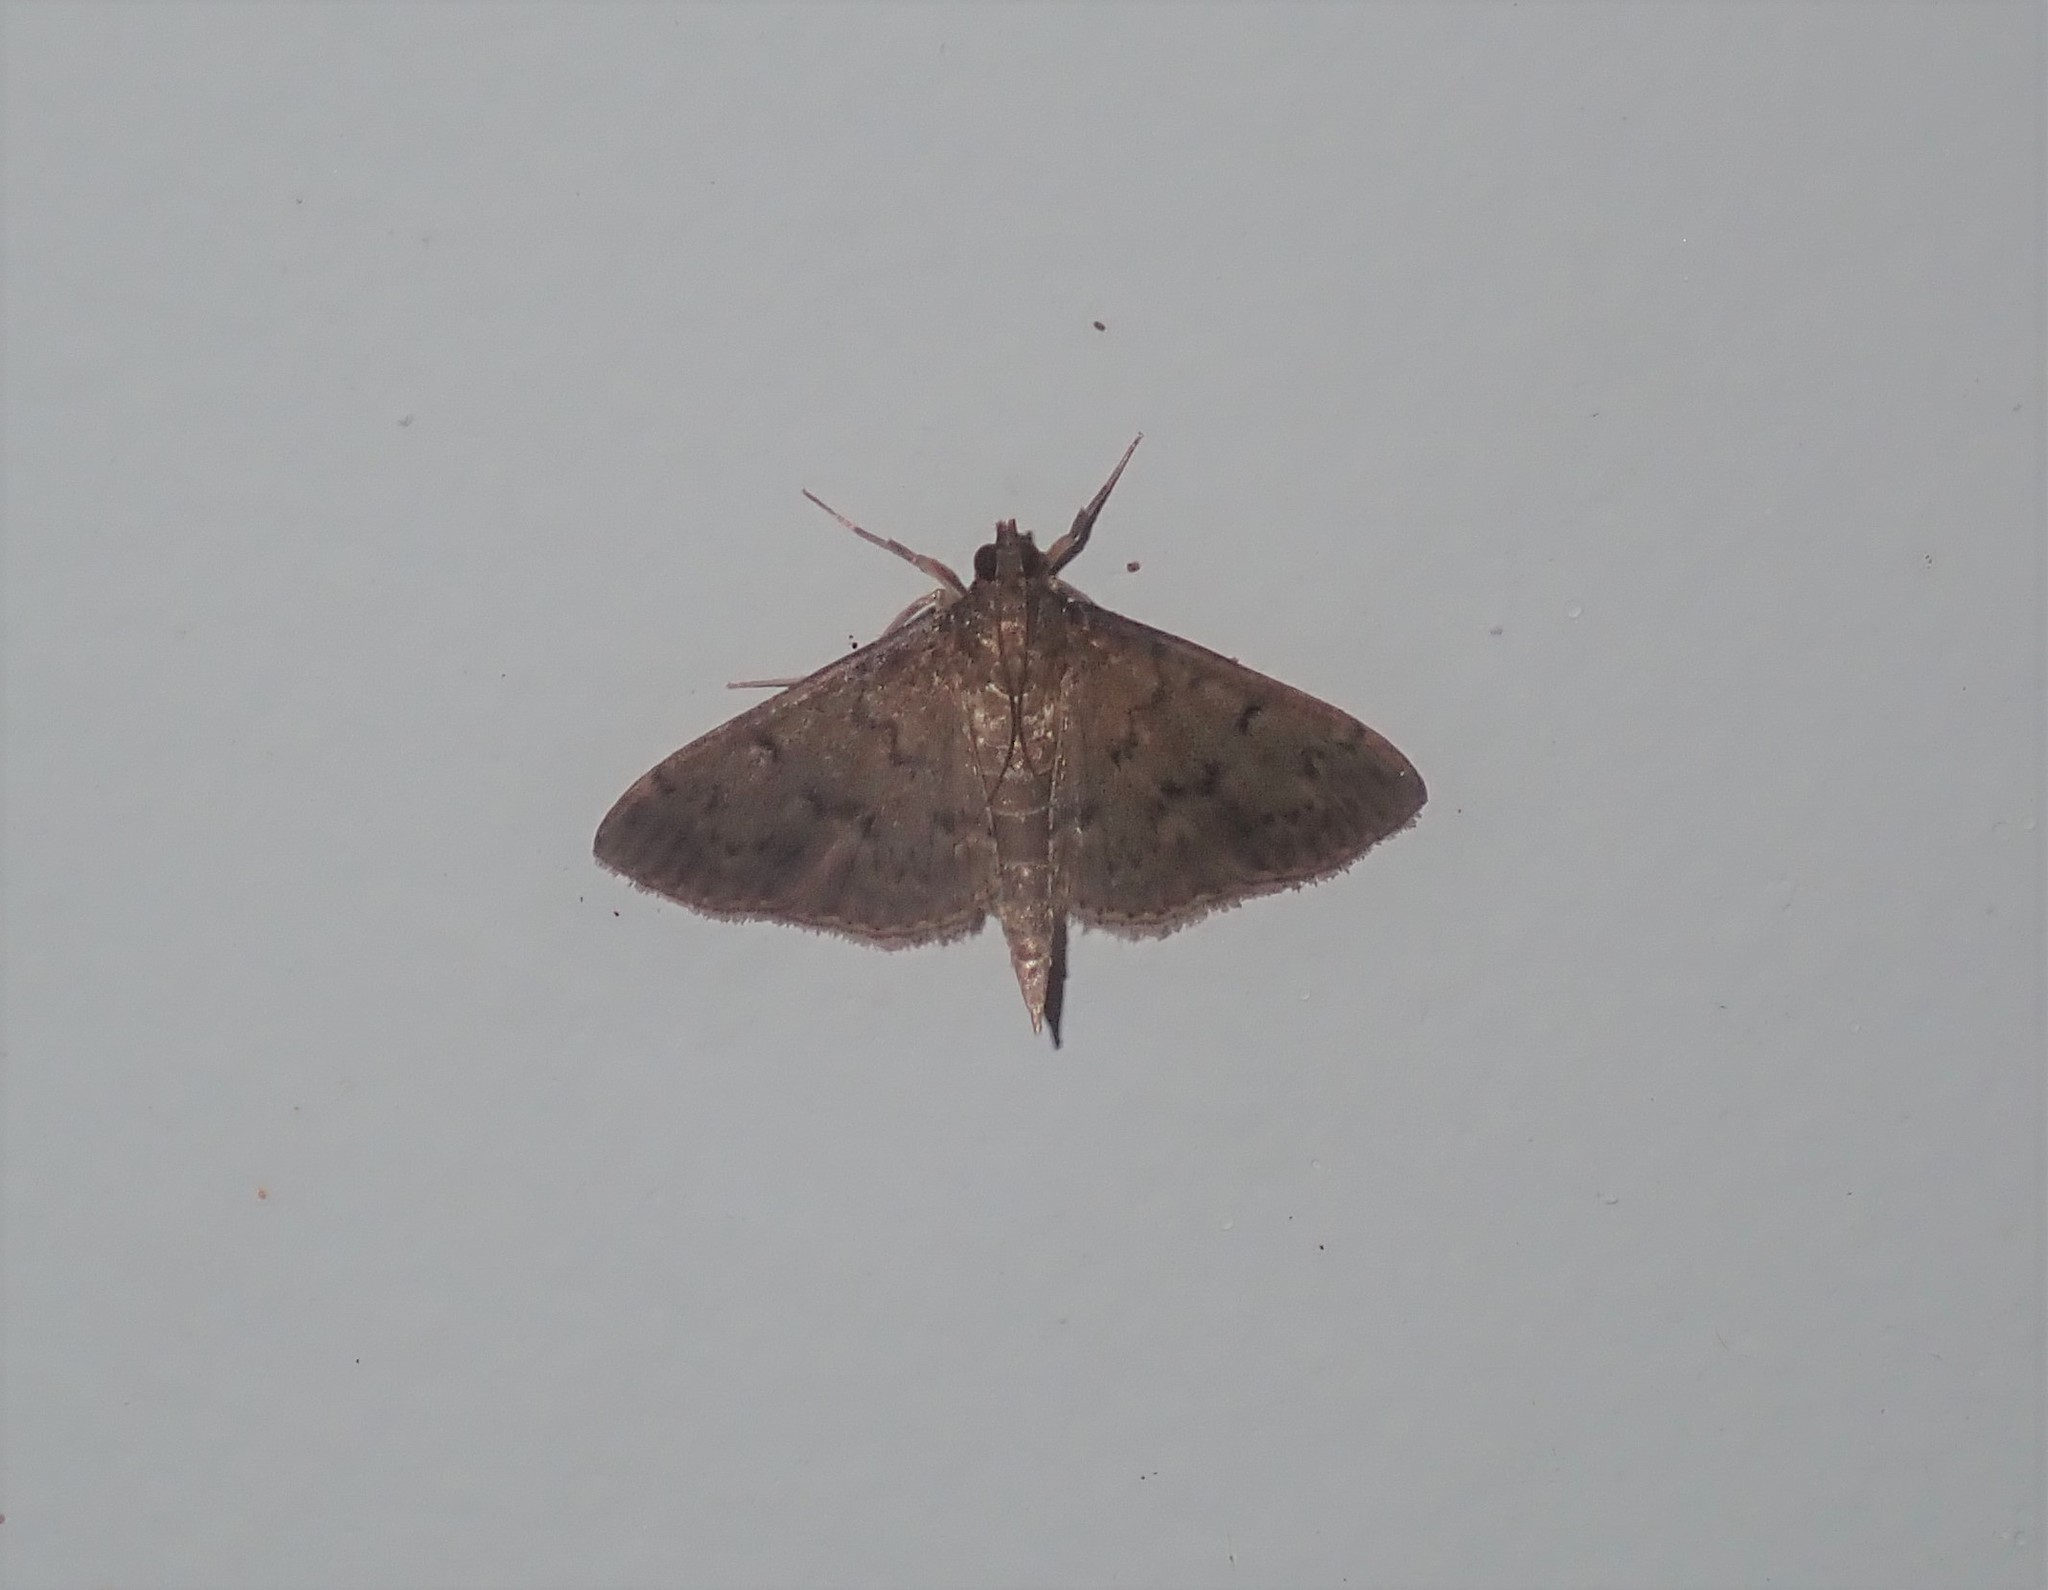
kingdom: Animalia
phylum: Arthropoda
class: Insecta
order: Lepidoptera
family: Crambidae
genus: Herpetogramma
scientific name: Herpetogramma licarsisalis
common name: Grass webworm
